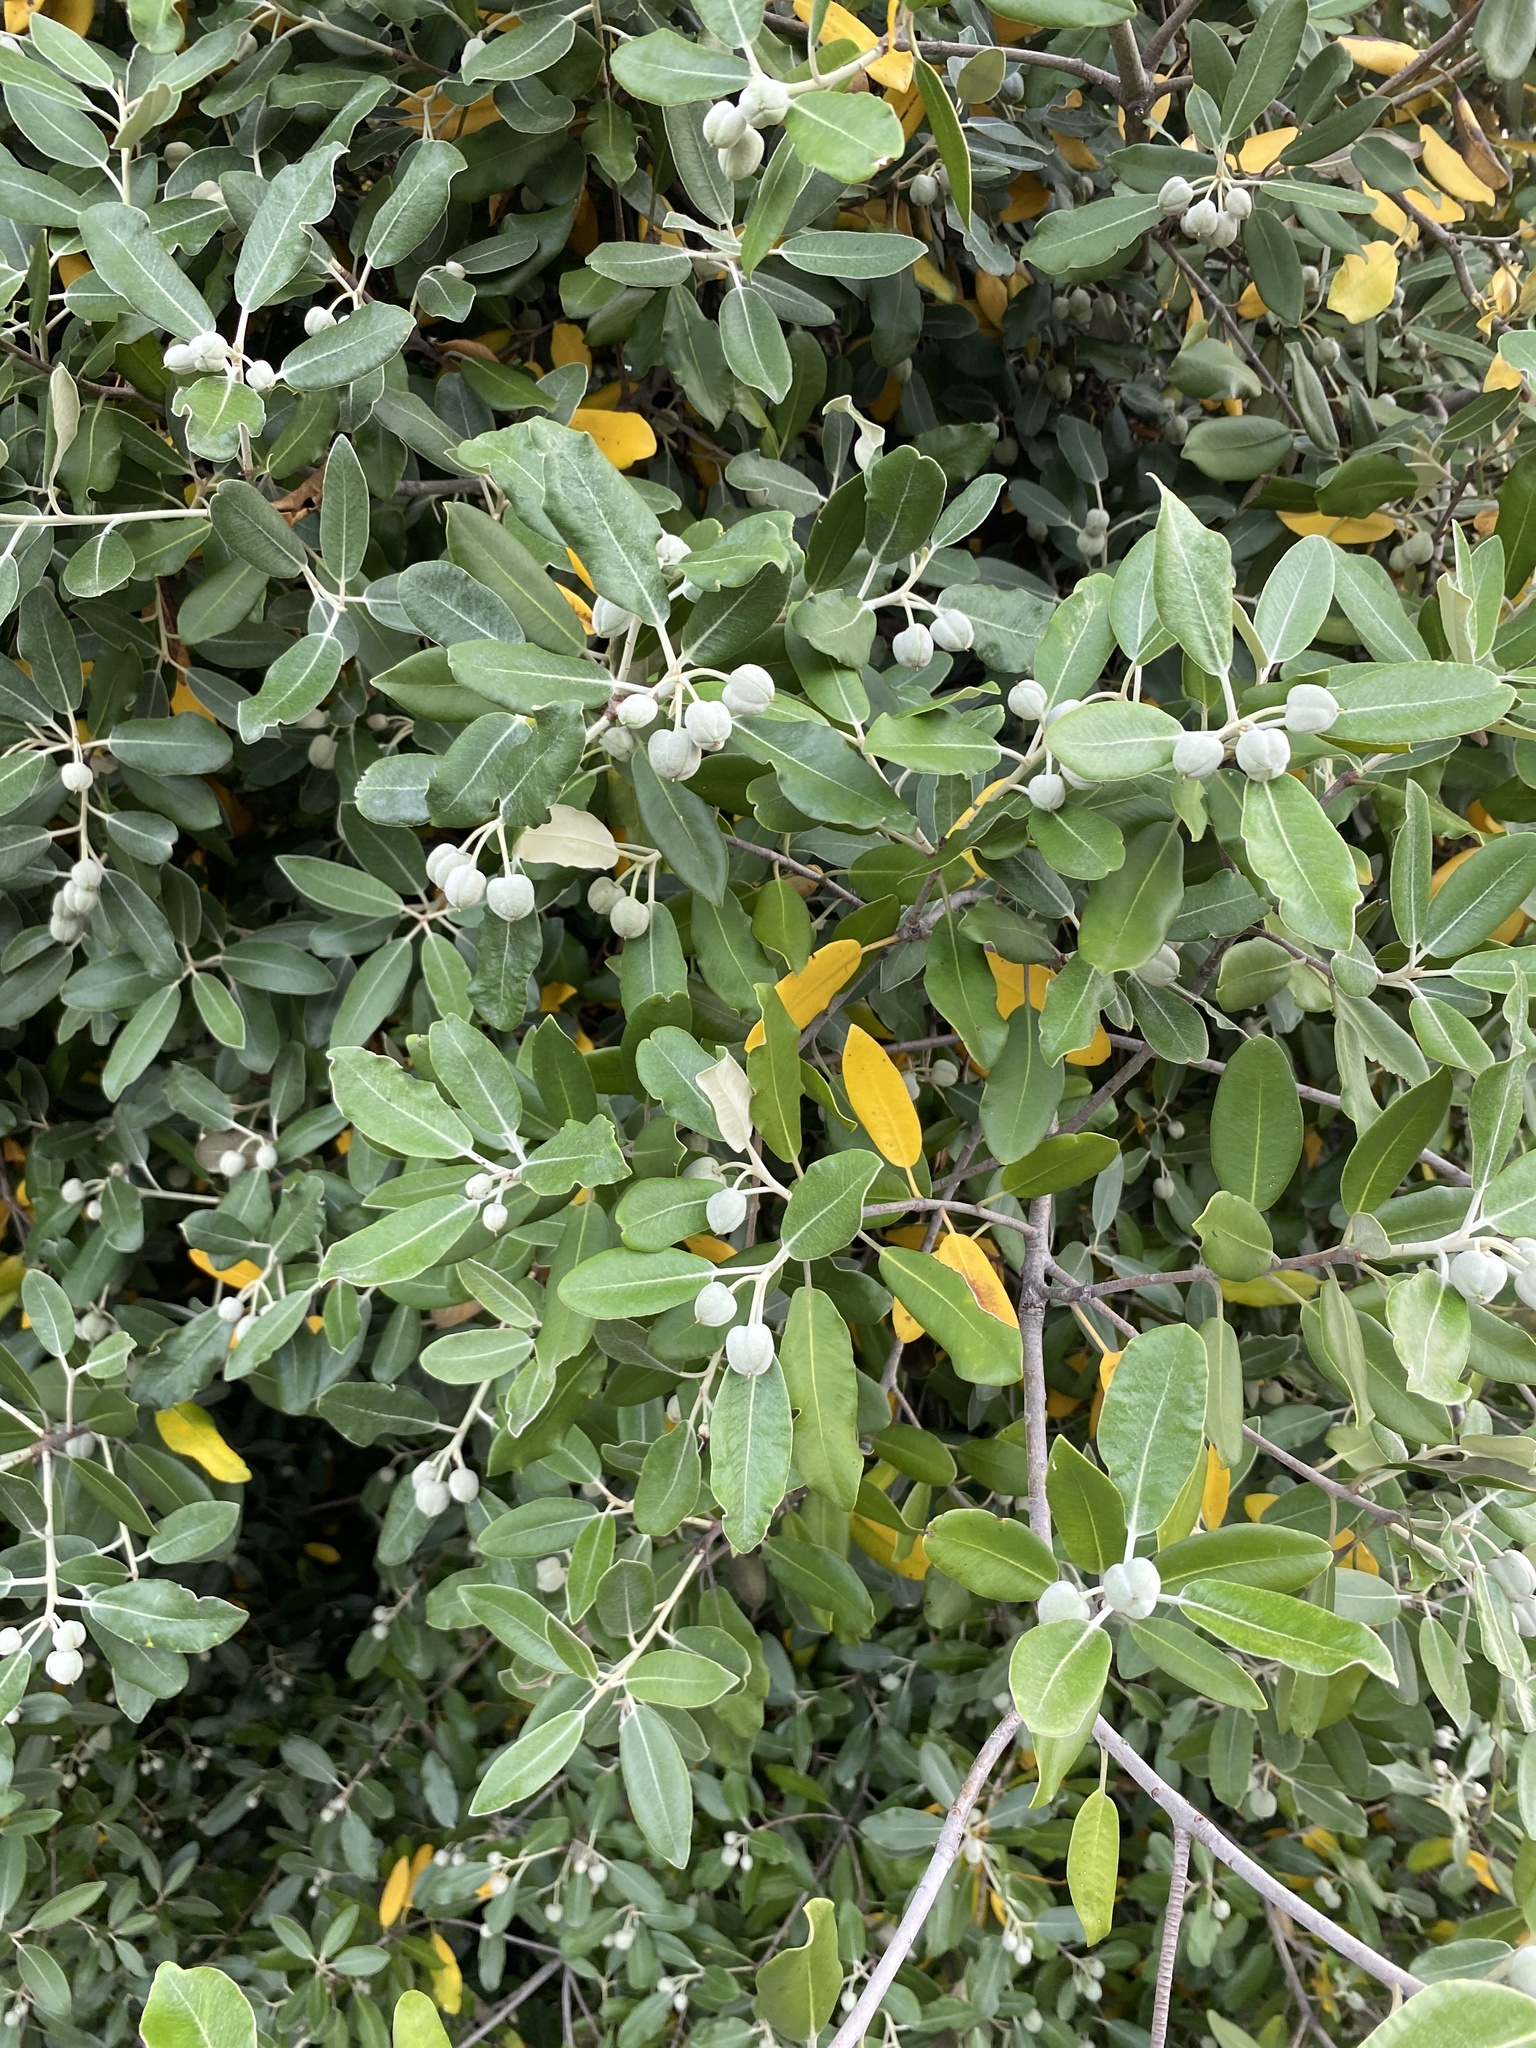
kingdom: Plantae
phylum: Tracheophyta
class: Magnoliopsida
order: Apiales
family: Pittosporaceae
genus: Pittosporum
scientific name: Pittosporum ralphii
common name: Ralph's desertwillow
